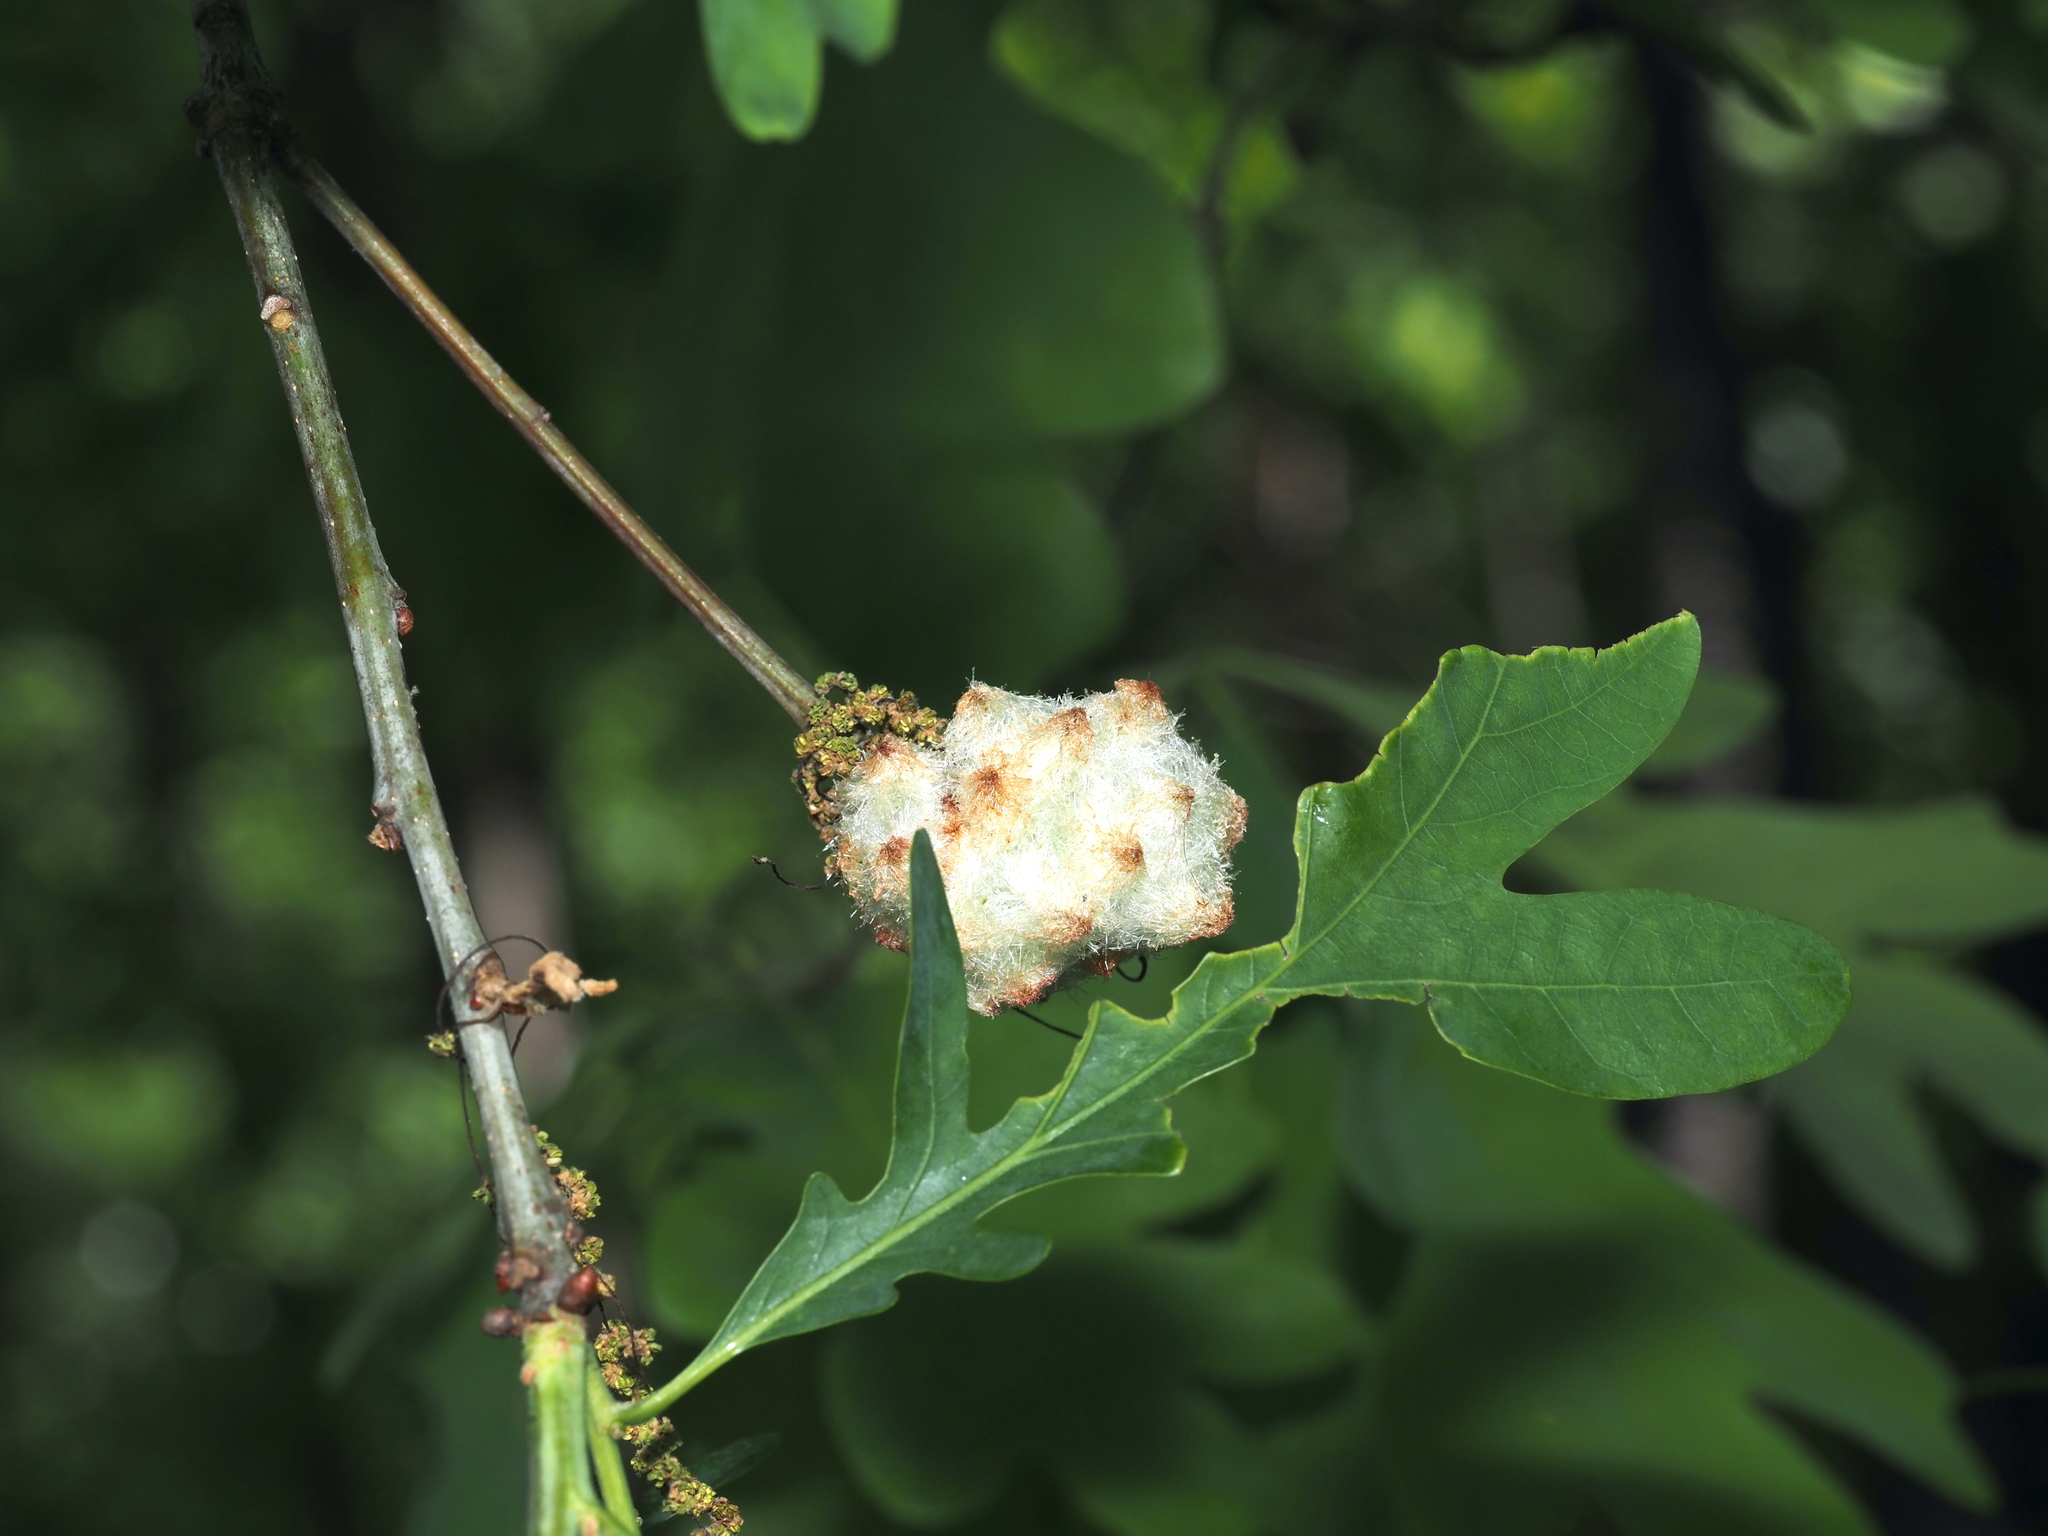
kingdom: Animalia
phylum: Arthropoda
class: Insecta
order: Hymenoptera
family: Cynipidae
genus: Callirhytis
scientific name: Callirhytis
